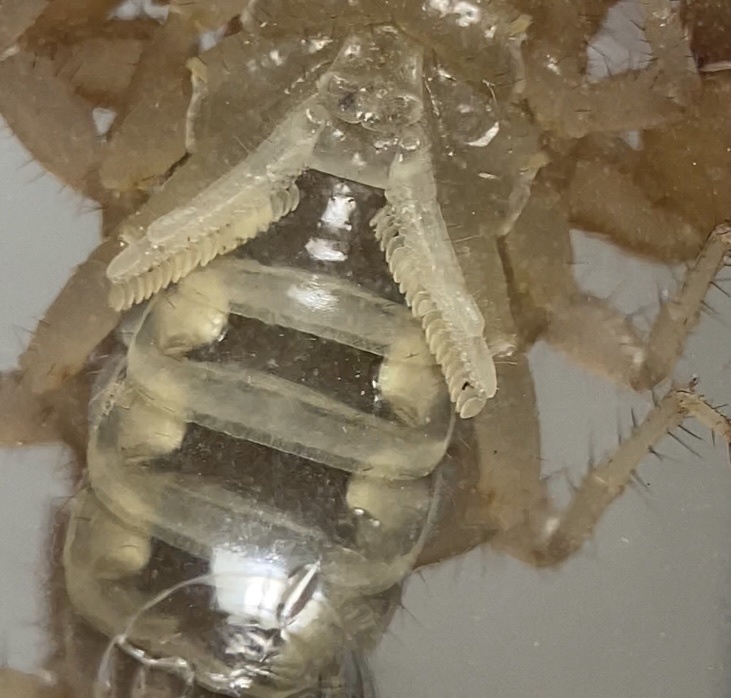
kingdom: Animalia
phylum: Arthropoda
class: Arachnida
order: Scorpiones
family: Vaejovidae
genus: Paravaejovis
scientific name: Paravaejovis spinigerus
